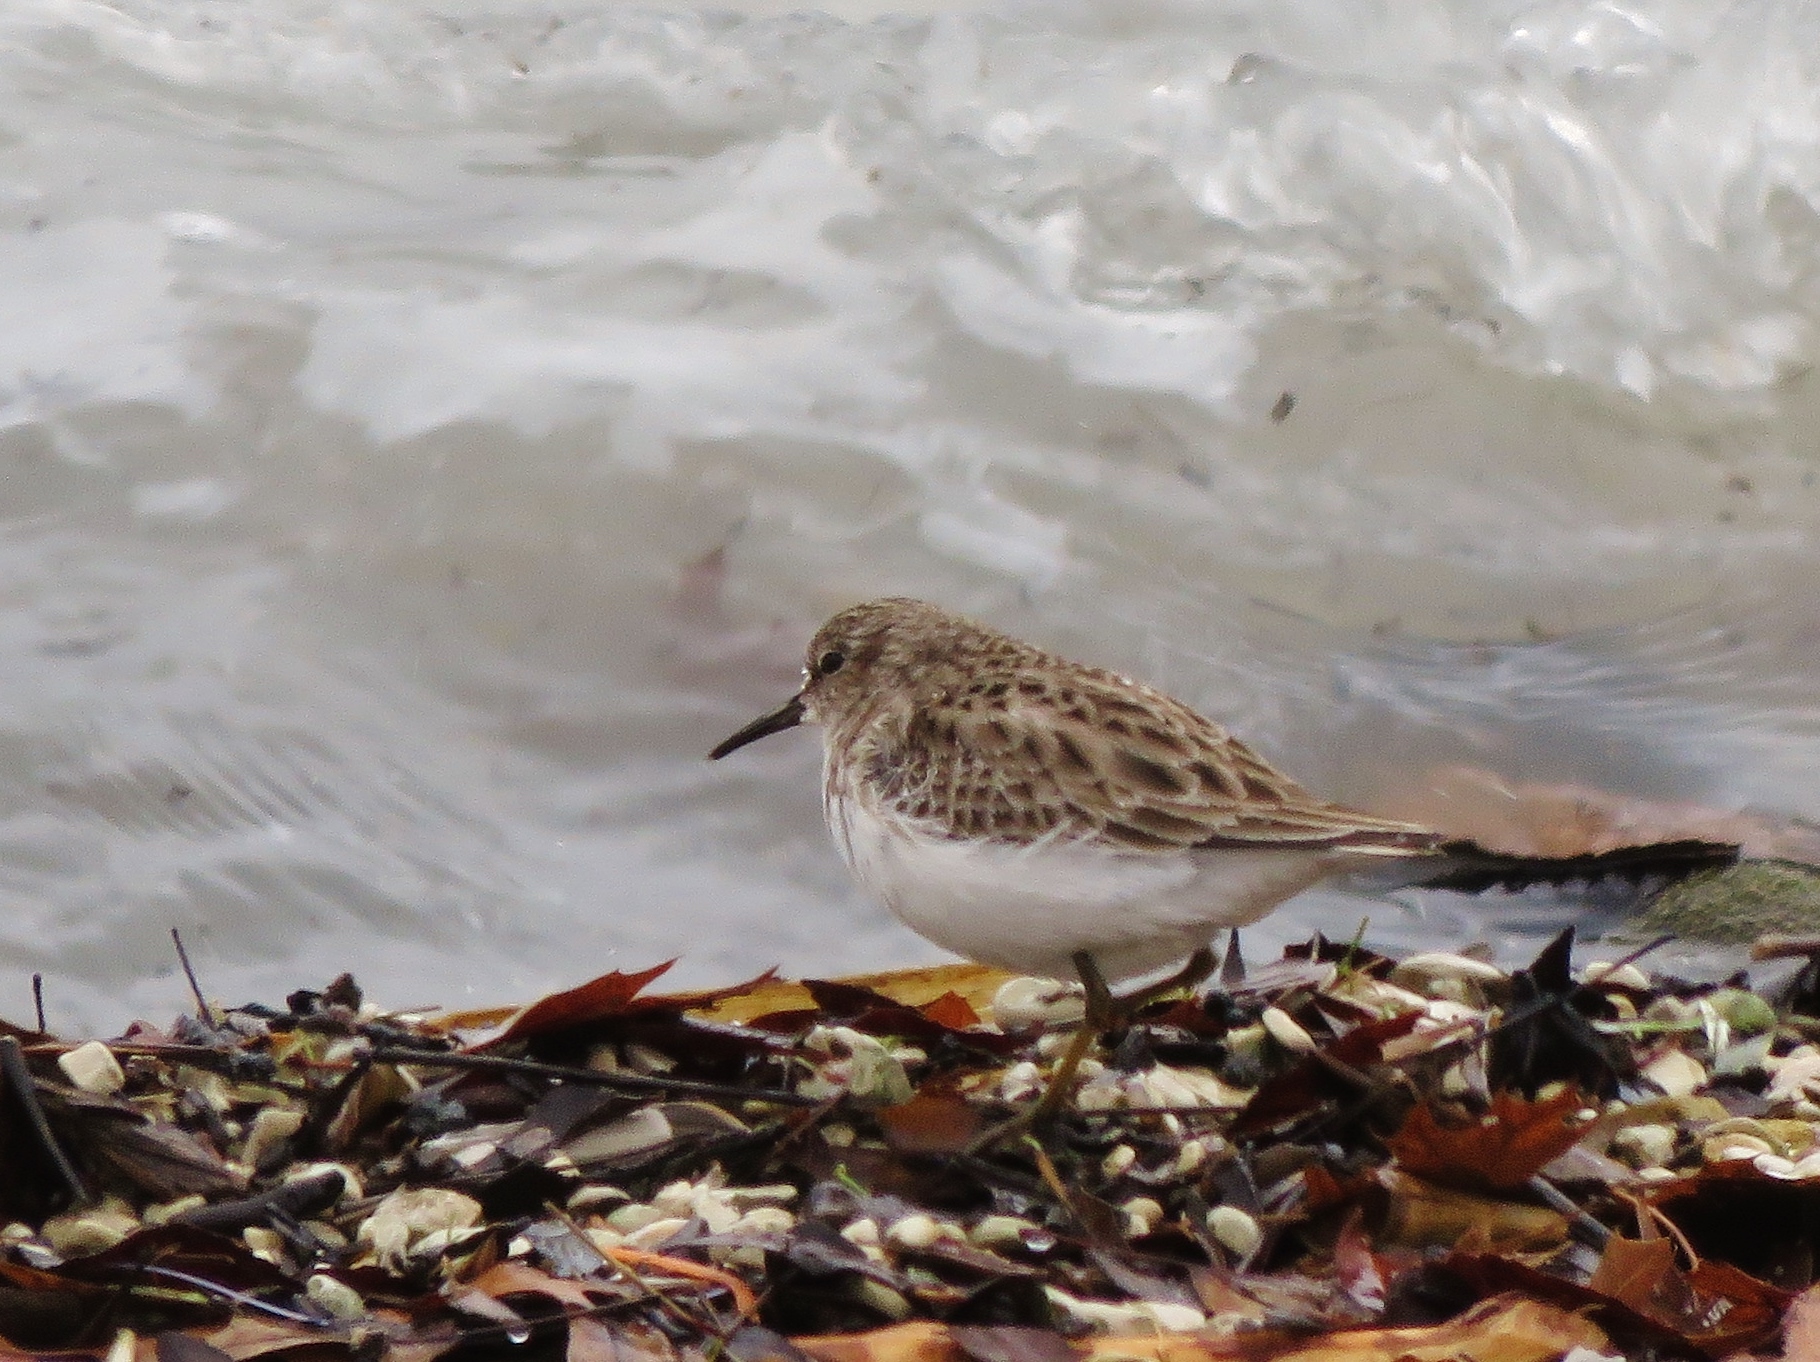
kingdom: Animalia
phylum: Chordata
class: Aves
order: Charadriiformes
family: Scolopacidae
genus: Calidris
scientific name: Calidris minutilla
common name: Least sandpiper
